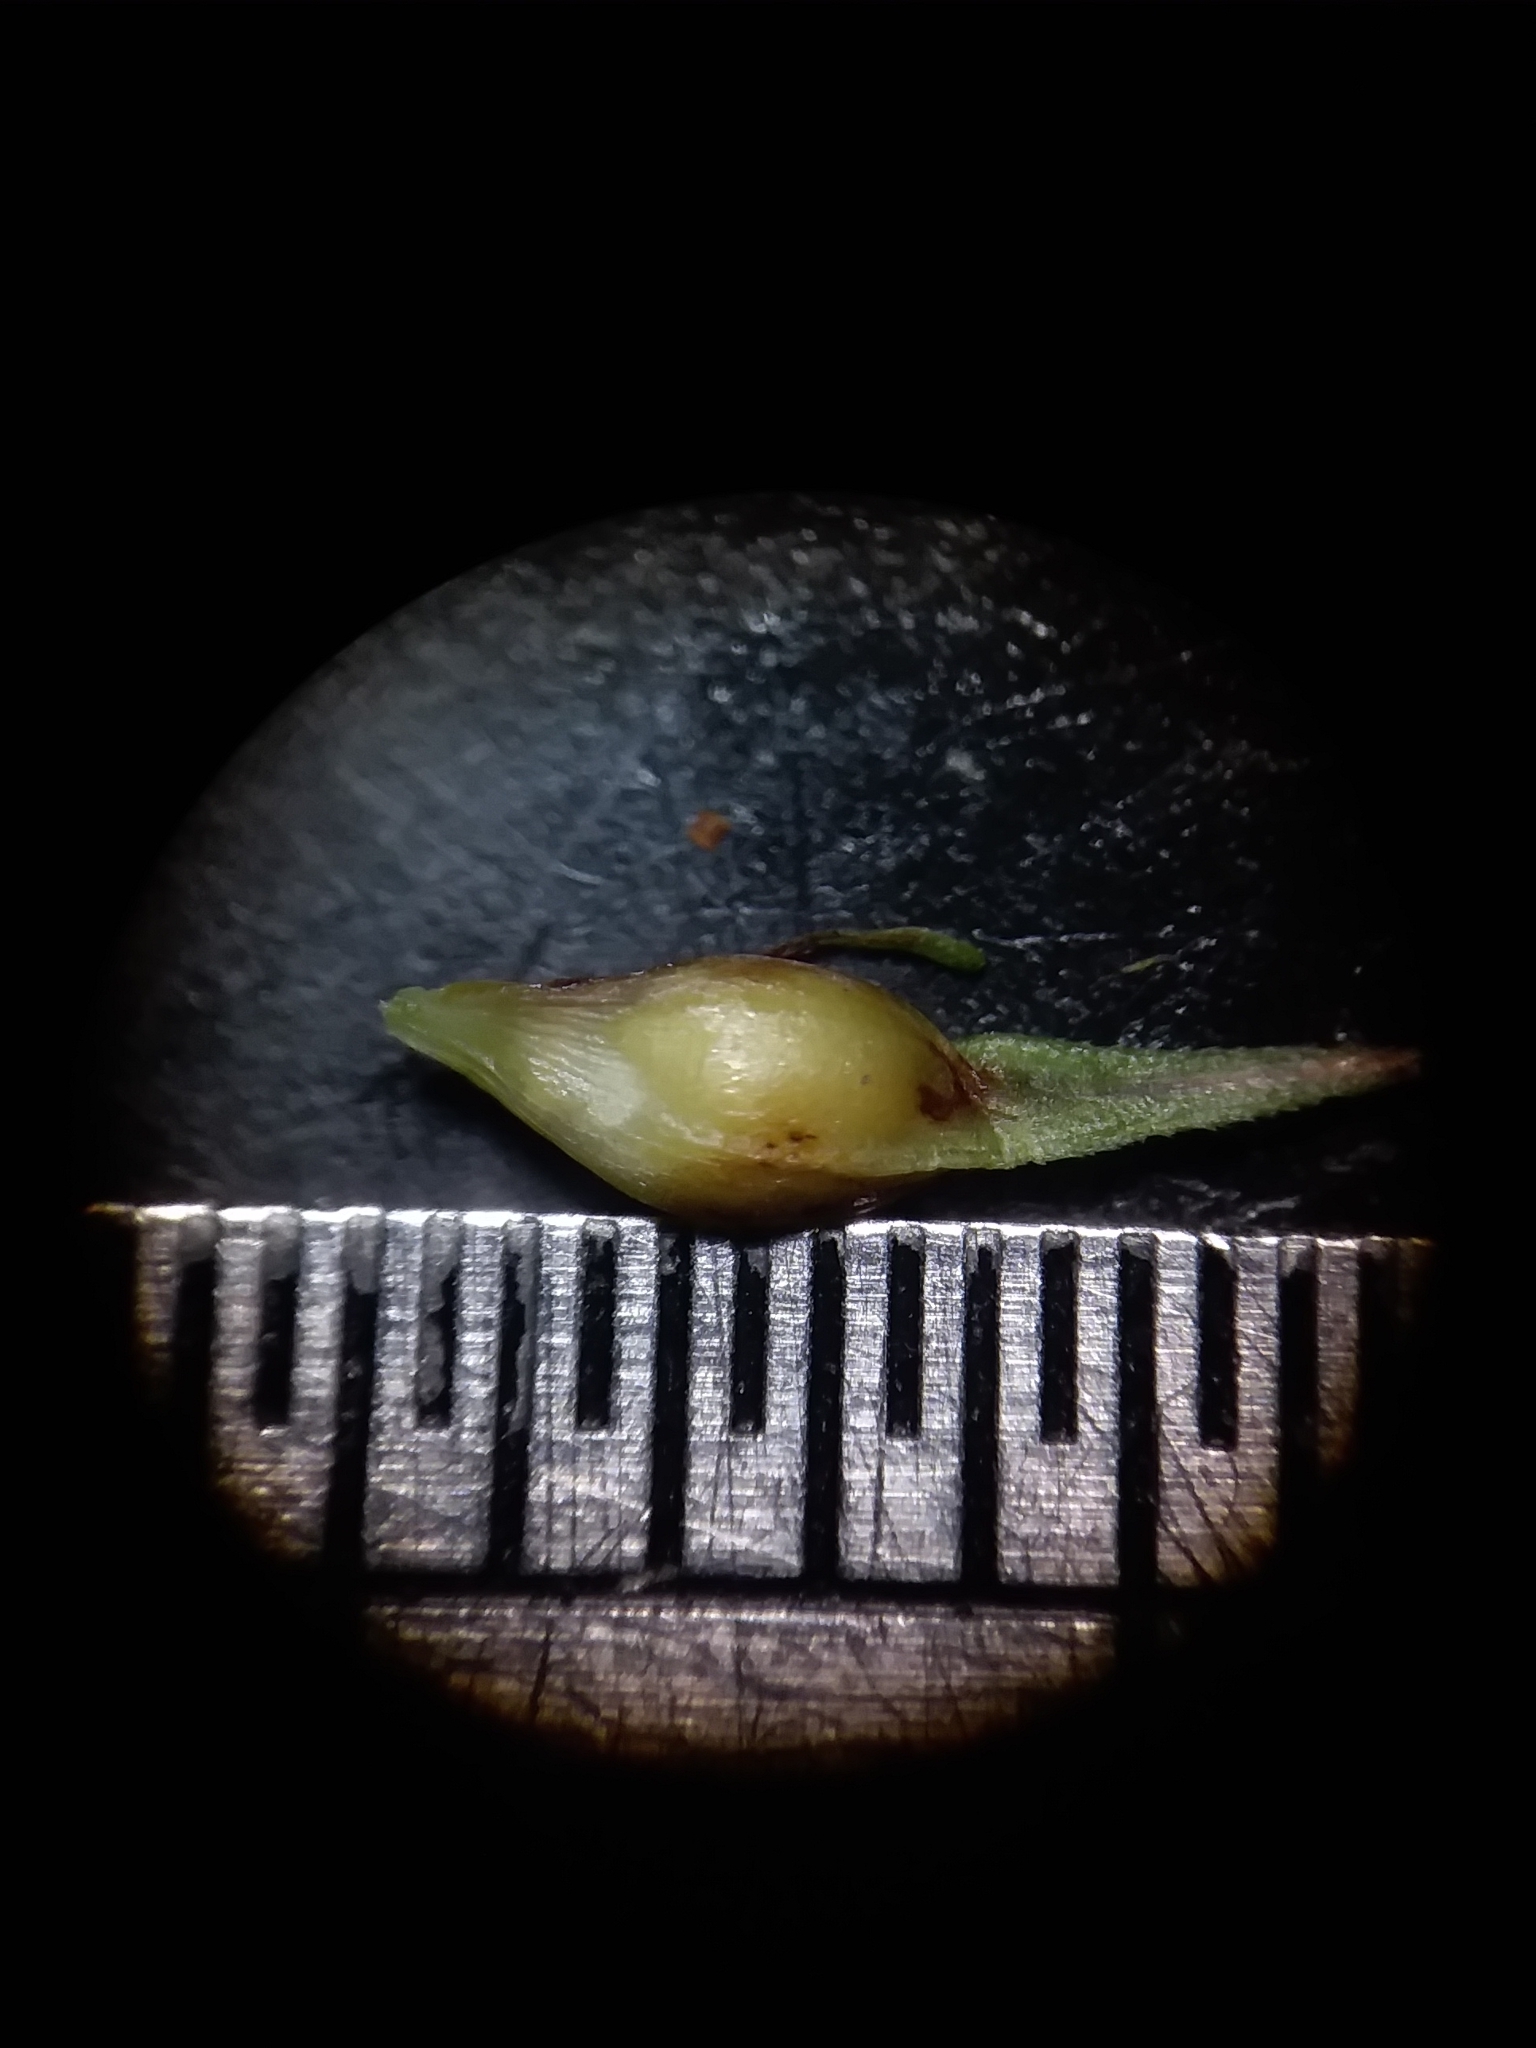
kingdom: Plantae
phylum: Tracheophyta
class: Liliopsida
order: Poales
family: Cyperaceae
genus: Carex
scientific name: Carex basiantha
